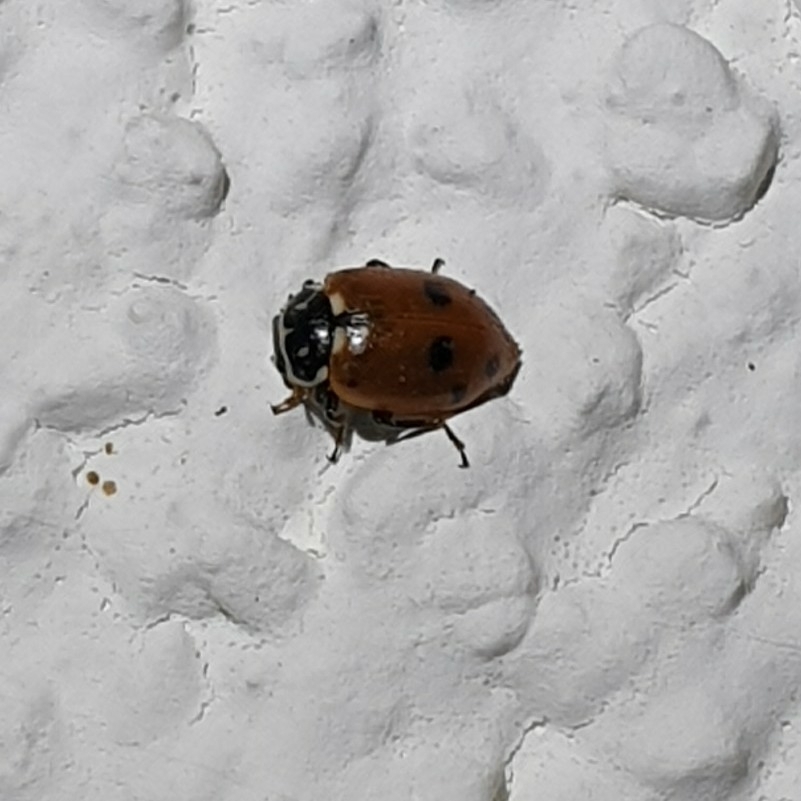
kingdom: Animalia
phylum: Arthropoda
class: Insecta
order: Coleoptera
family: Coccinellidae
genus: Hippodamia
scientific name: Hippodamia variegata
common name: Ladybird beetle
